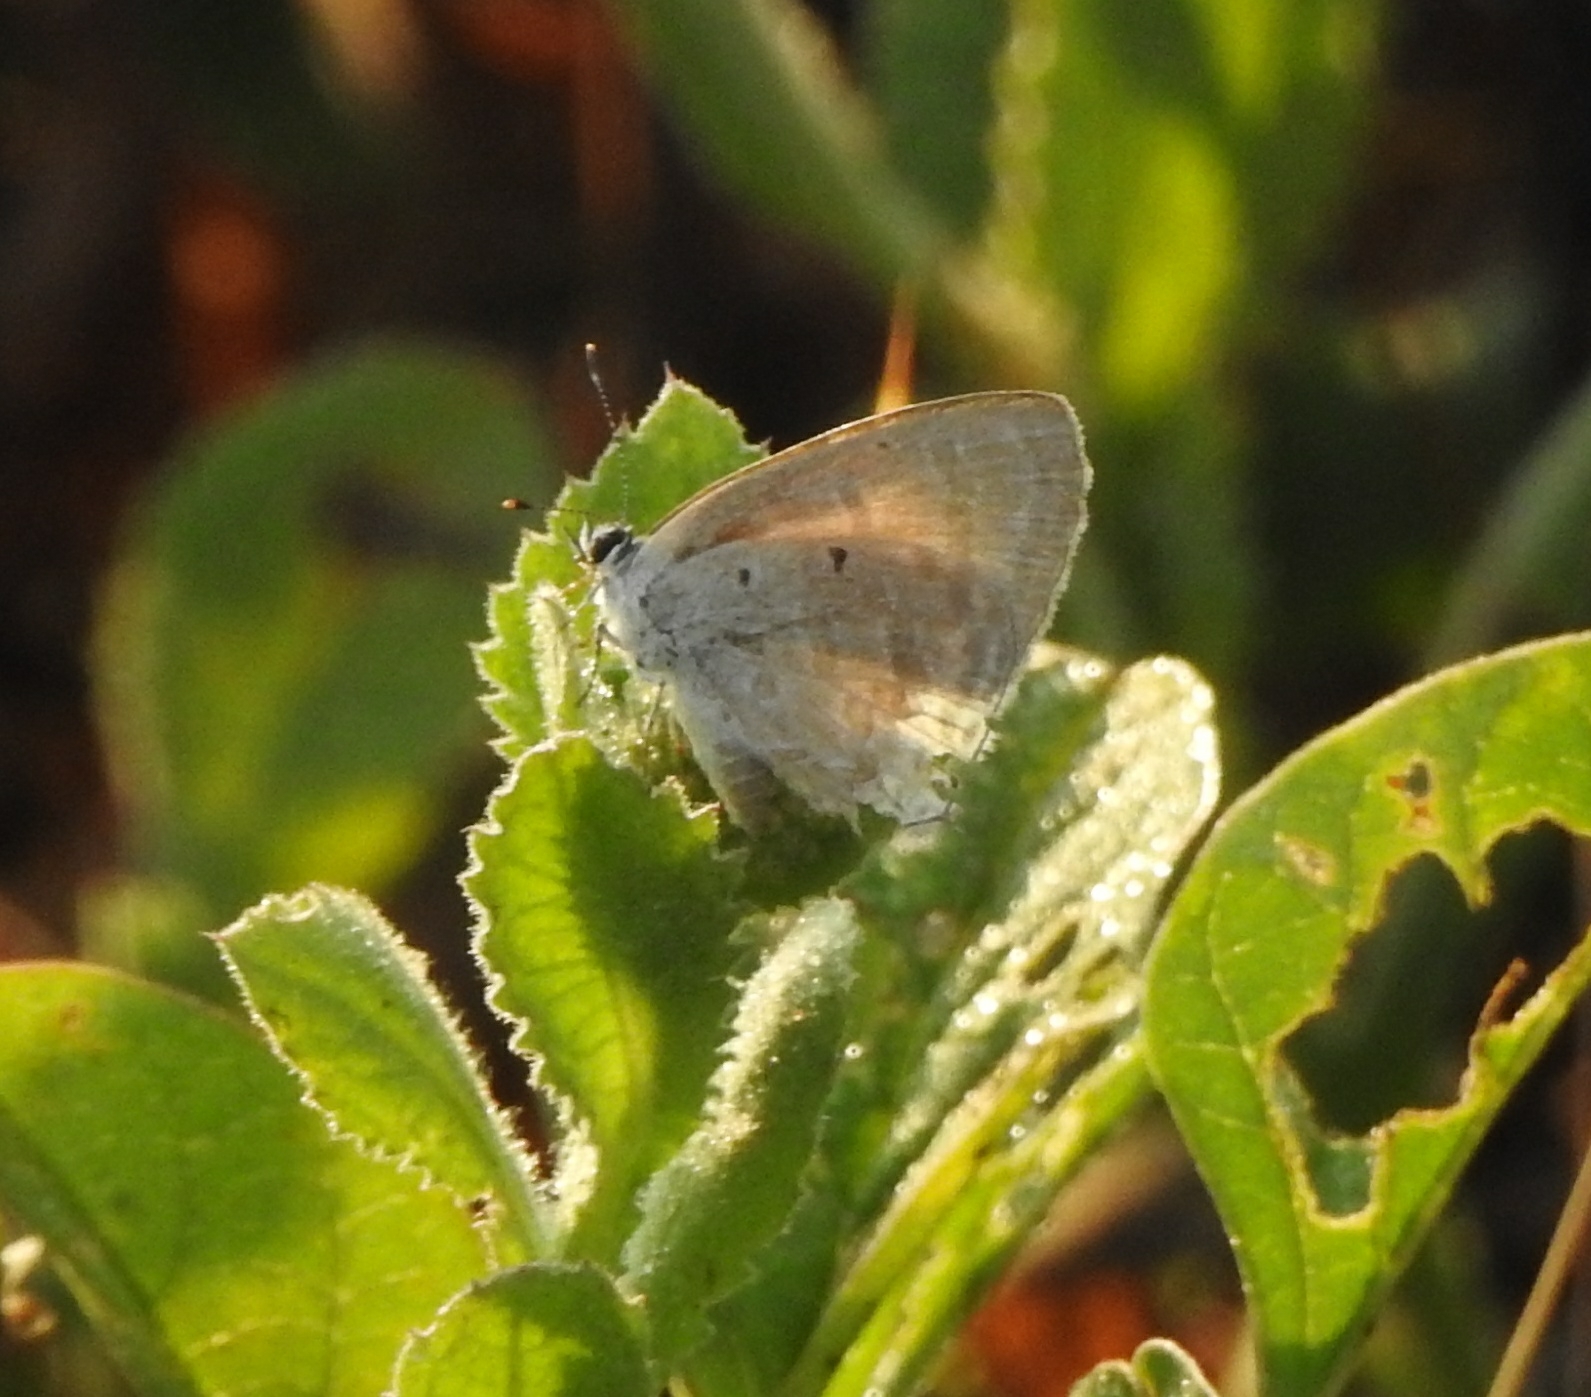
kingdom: Animalia
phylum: Arthropoda
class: Insecta
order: Lepidoptera
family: Lycaenidae
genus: Catochrysops
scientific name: Catochrysops strabo
